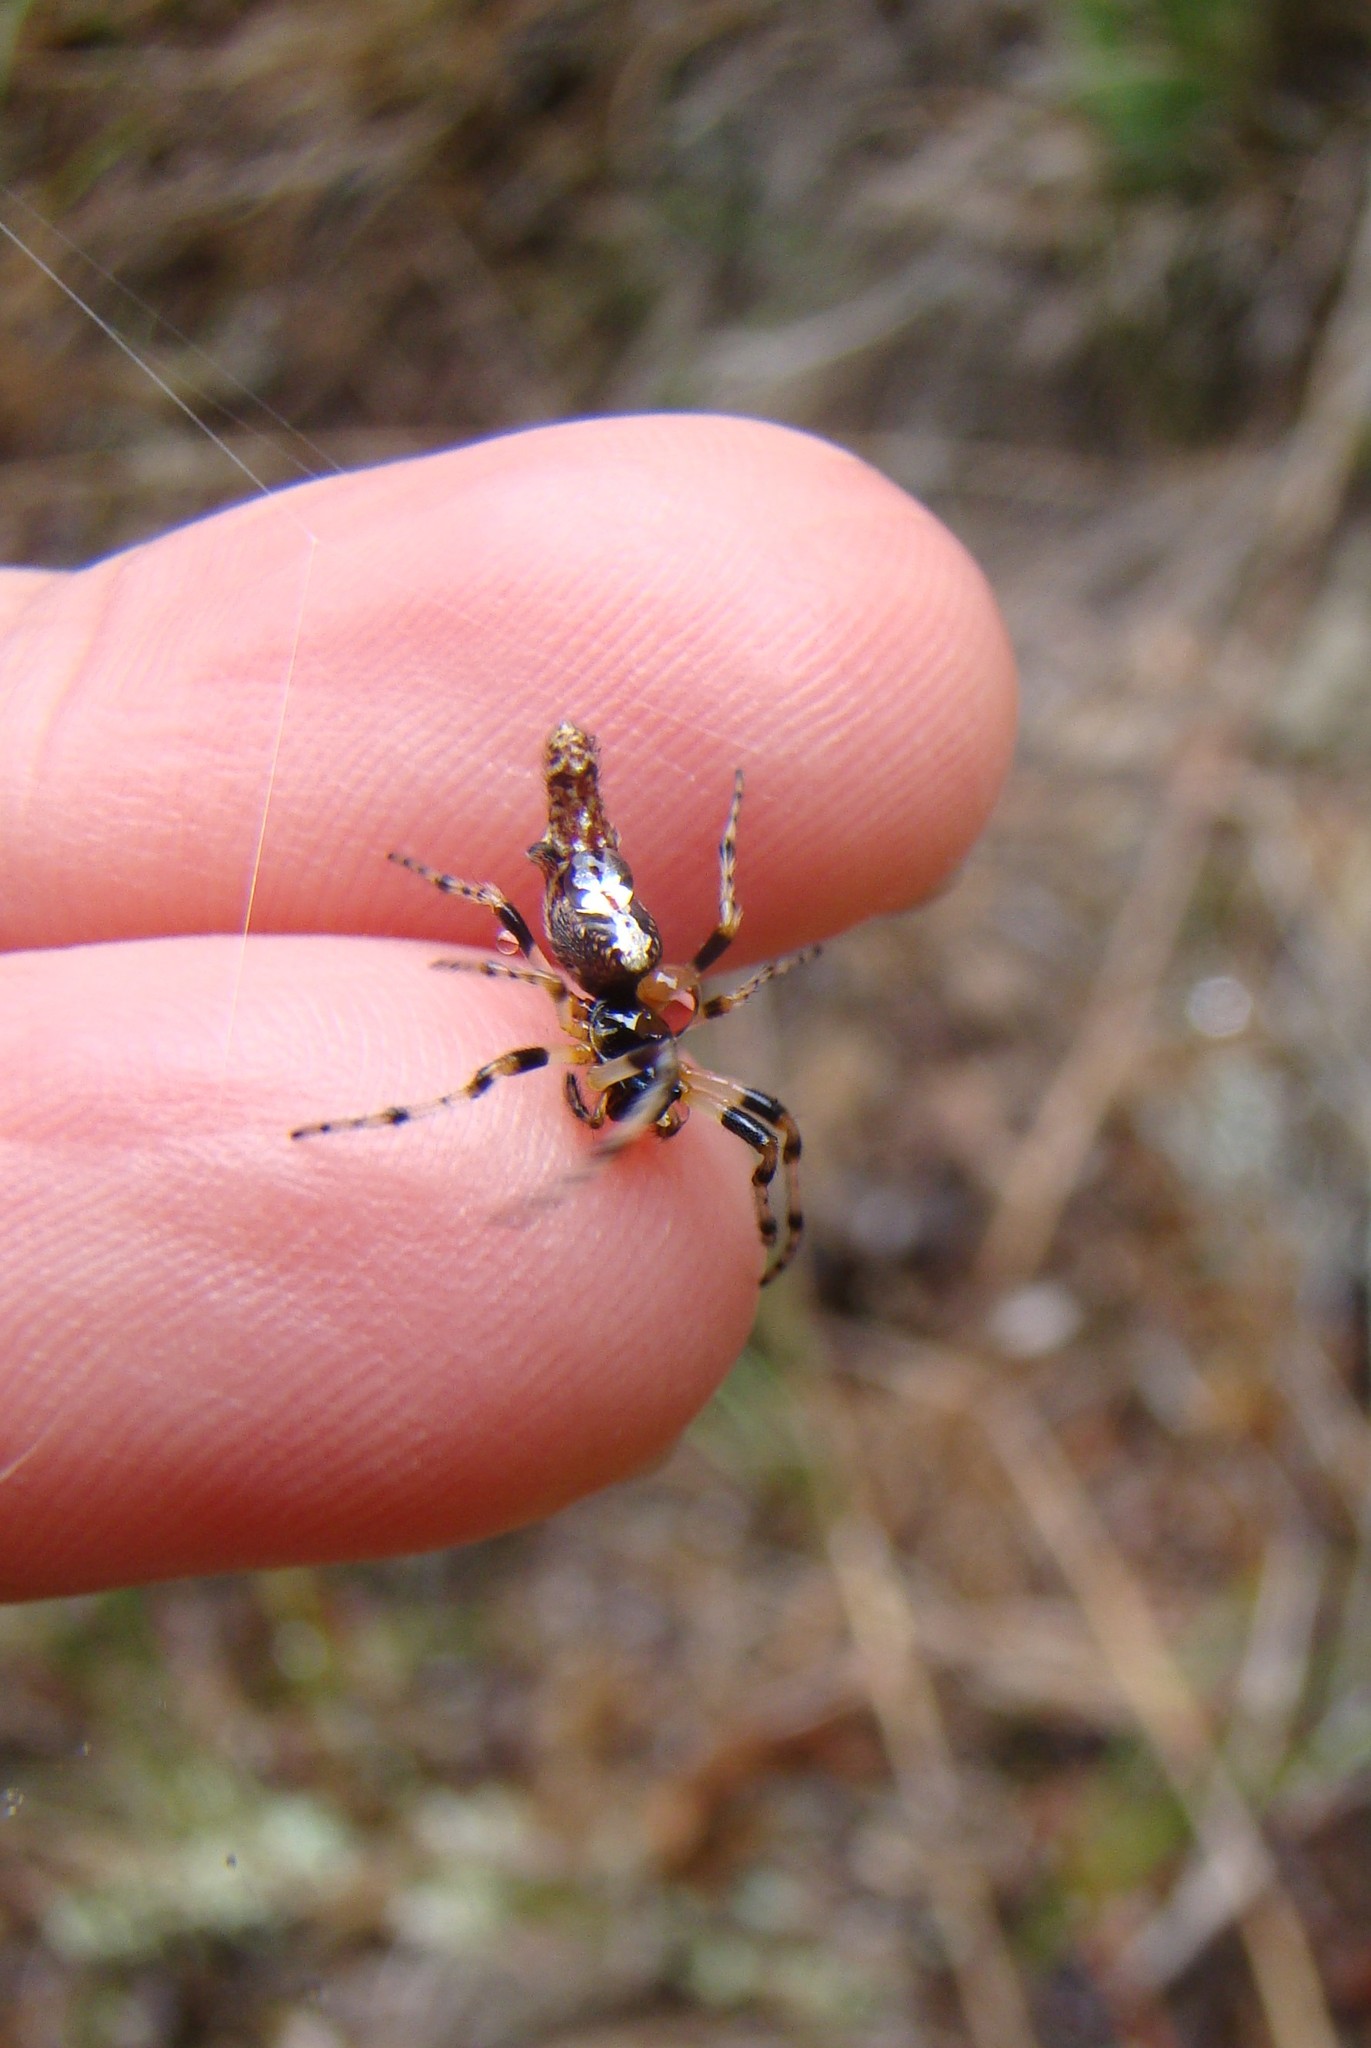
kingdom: Animalia
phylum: Arthropoda
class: Arachnida
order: Araneae
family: Araneidae
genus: Cyclosa
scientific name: Cyclosa trilobata
